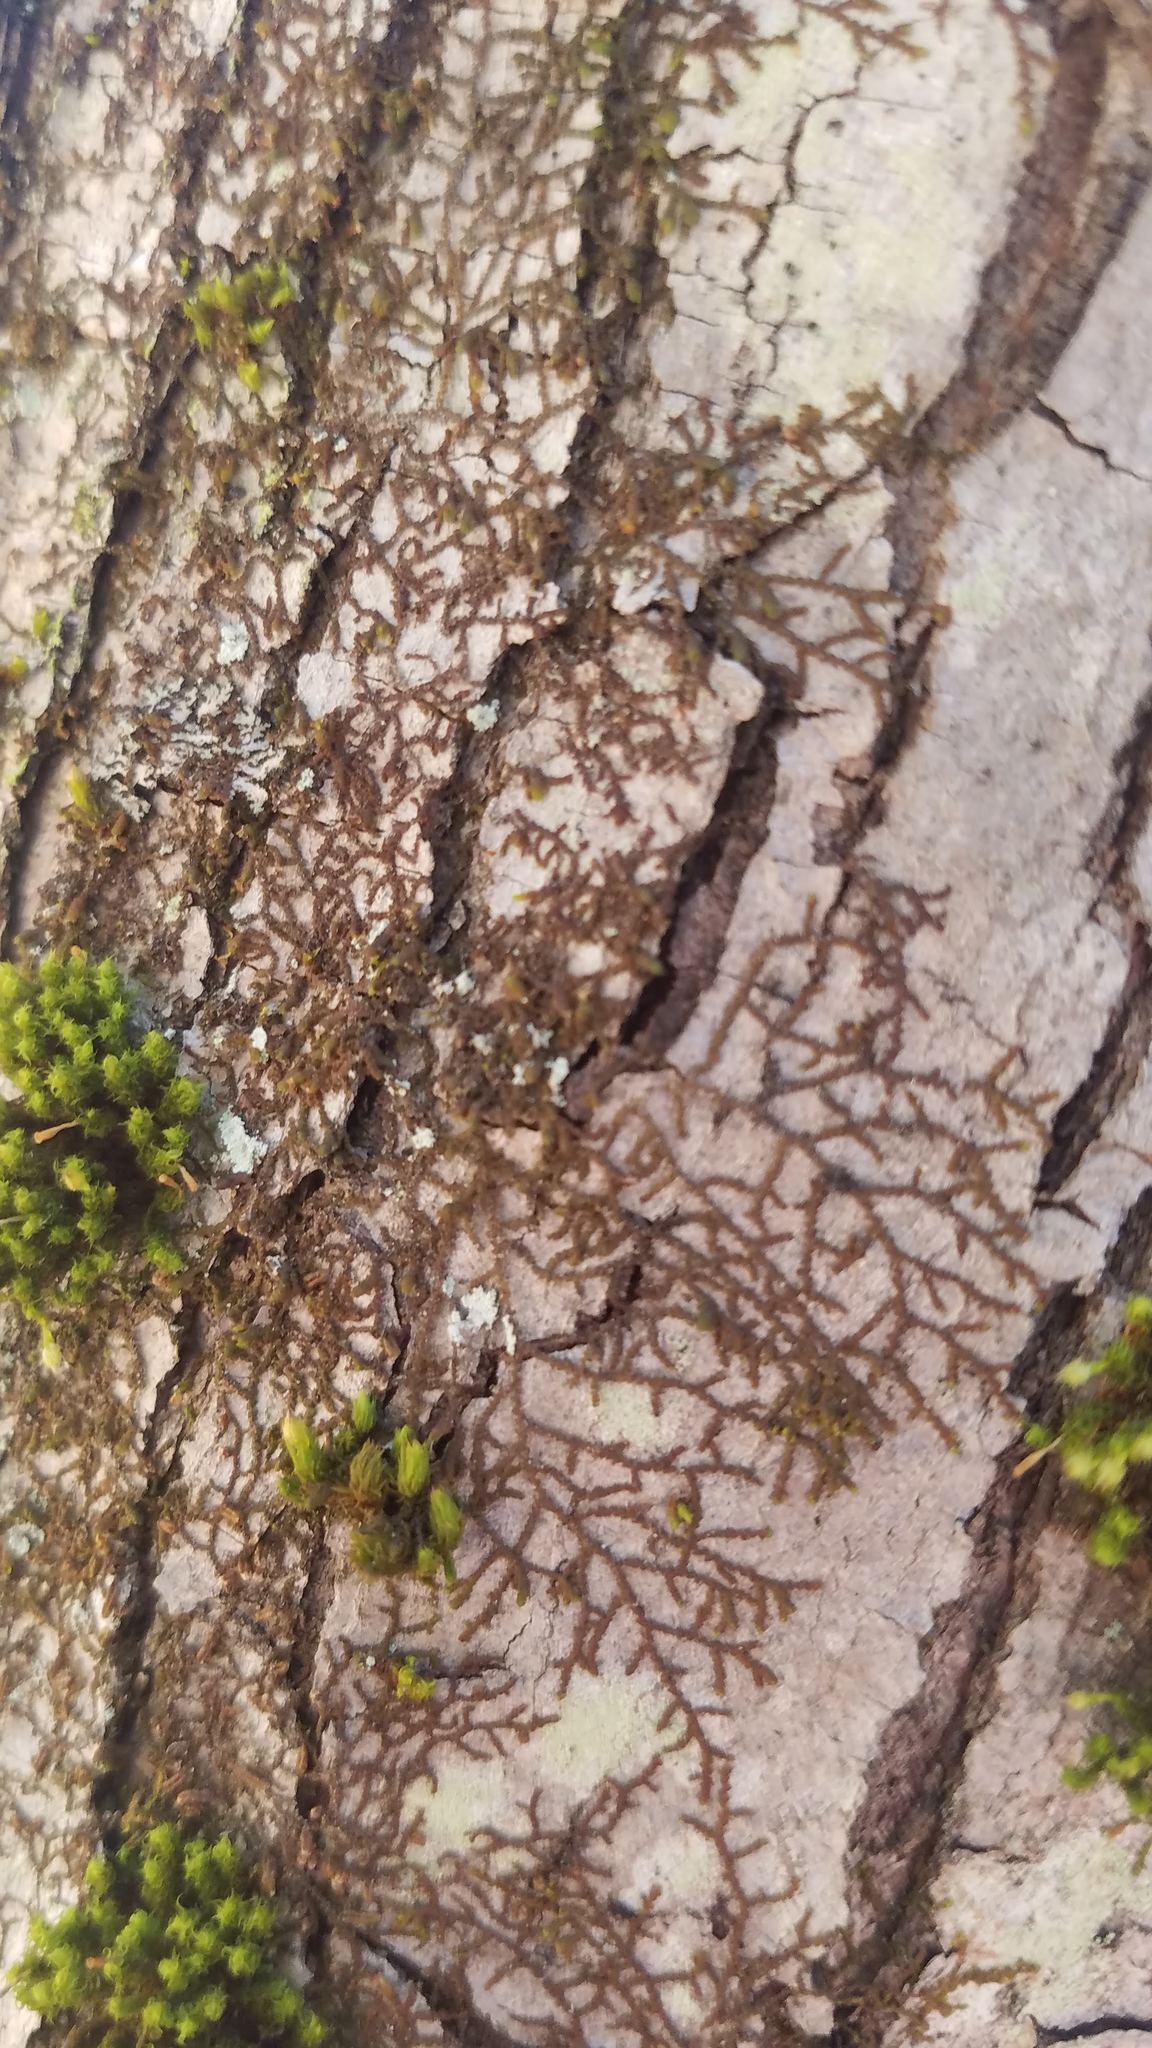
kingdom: Plantae
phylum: Marchantiophyta
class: Jungermanniopsida
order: Porellales
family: Frullaniaceae
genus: Frullania
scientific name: Frullania eboracensis
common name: New york scalewort
